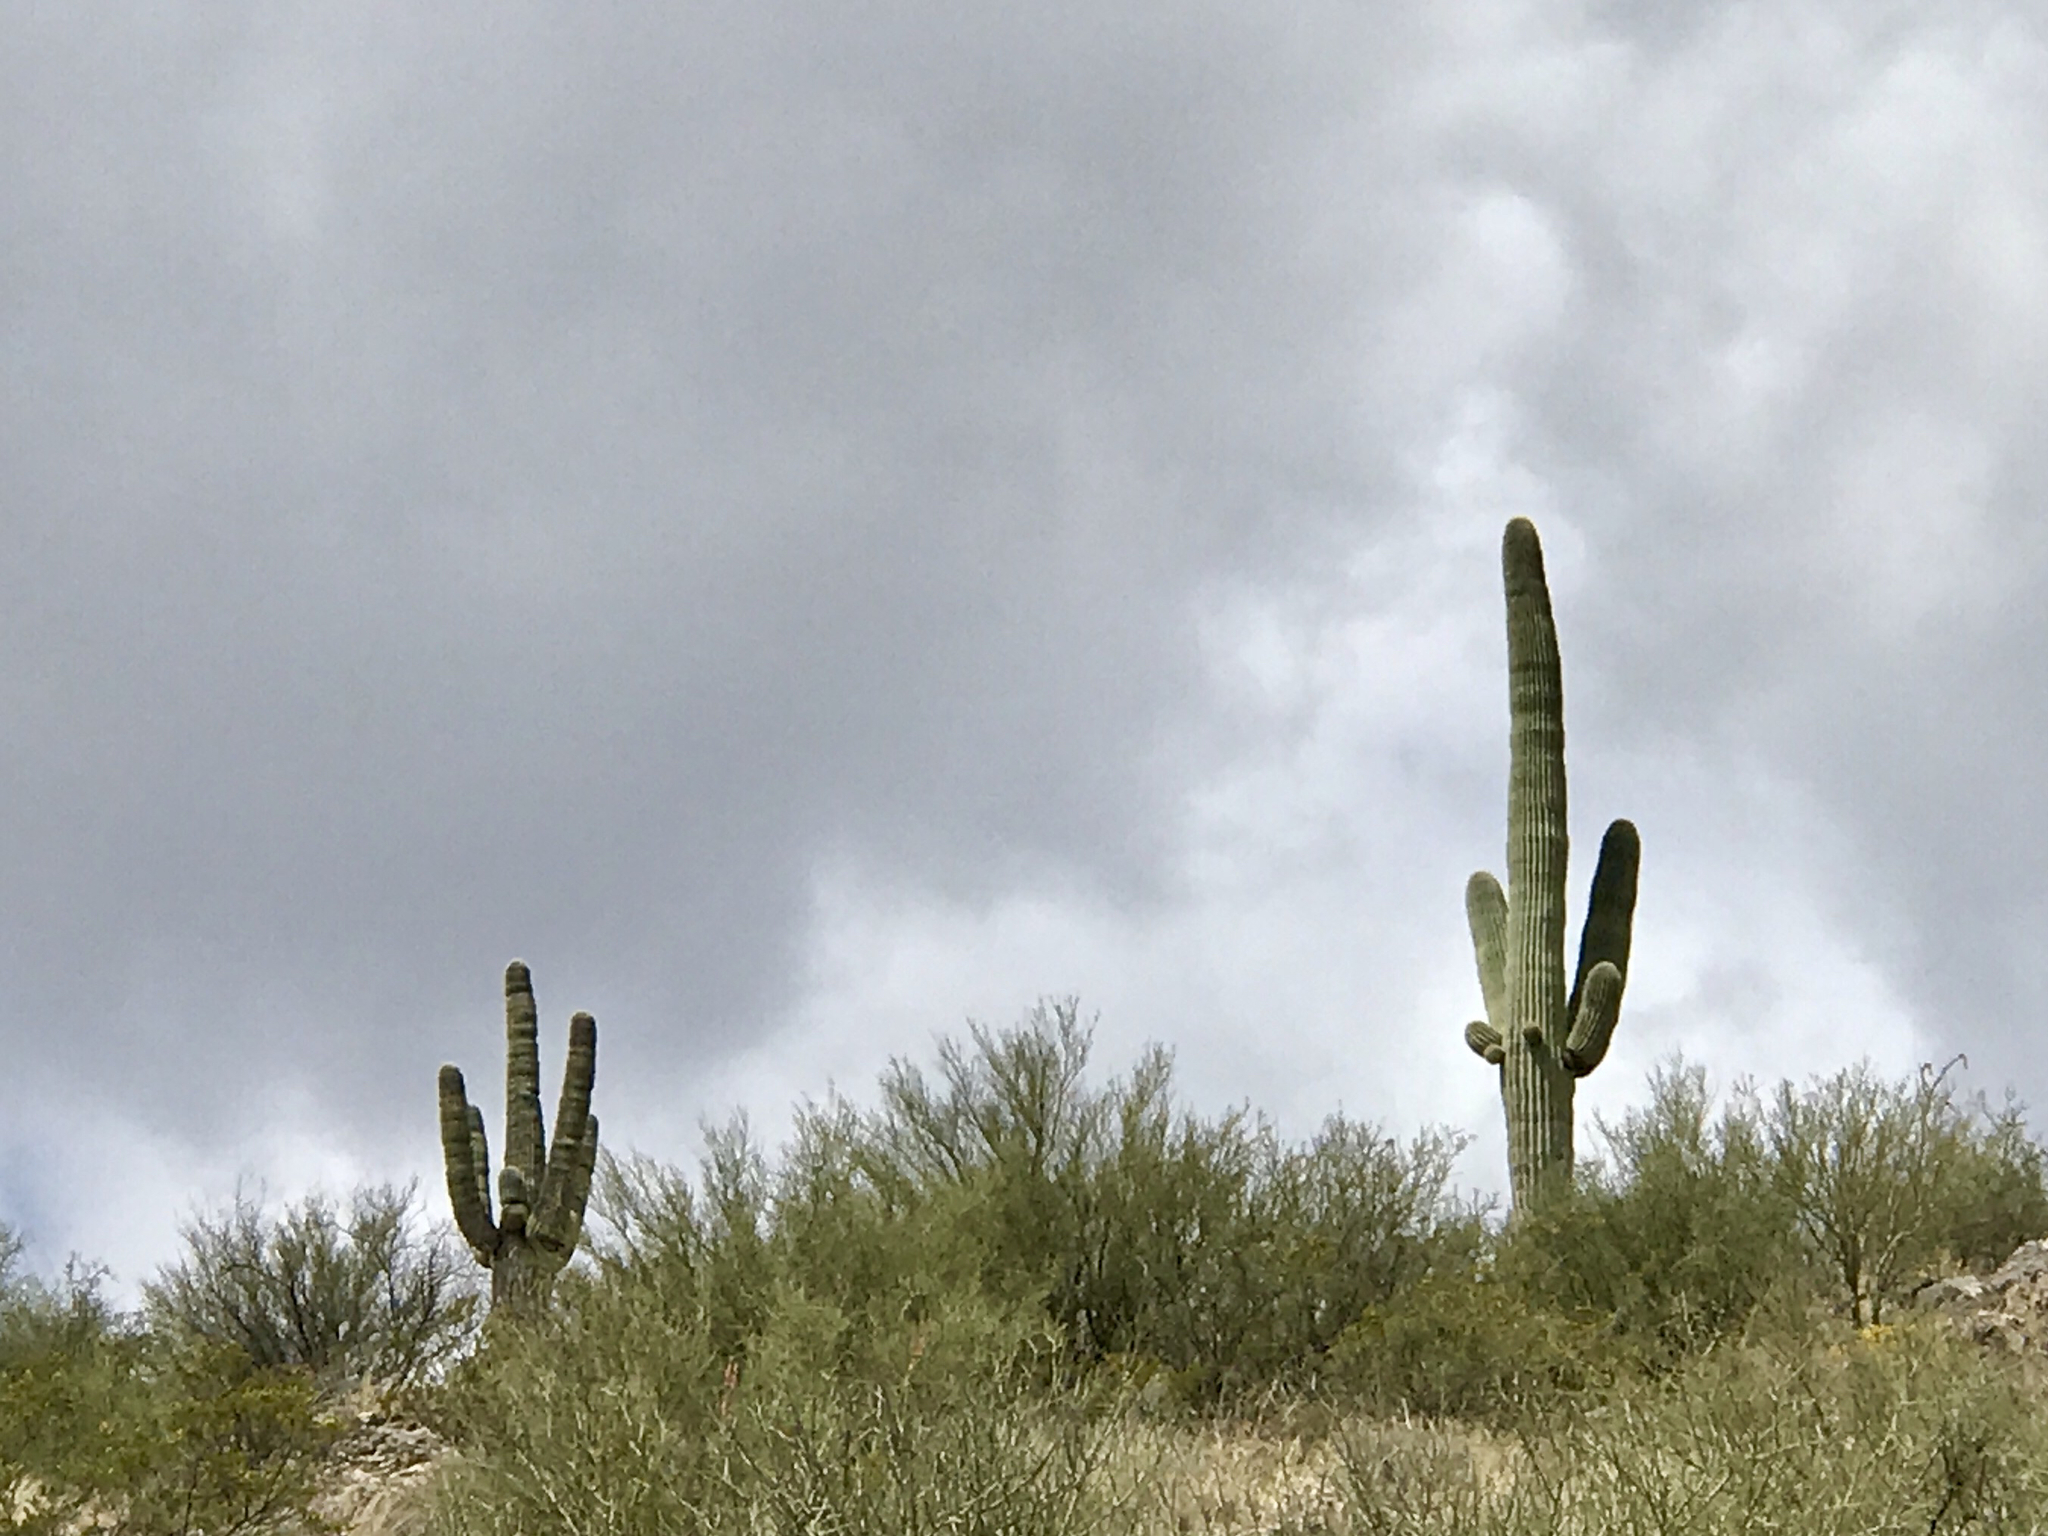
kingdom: Plantae
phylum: Tracheophyta
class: Magnoliopsida
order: Caryophyllales
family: Cactaceae
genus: Carnegiea
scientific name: Carnegiea gigantea
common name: Saguaro
